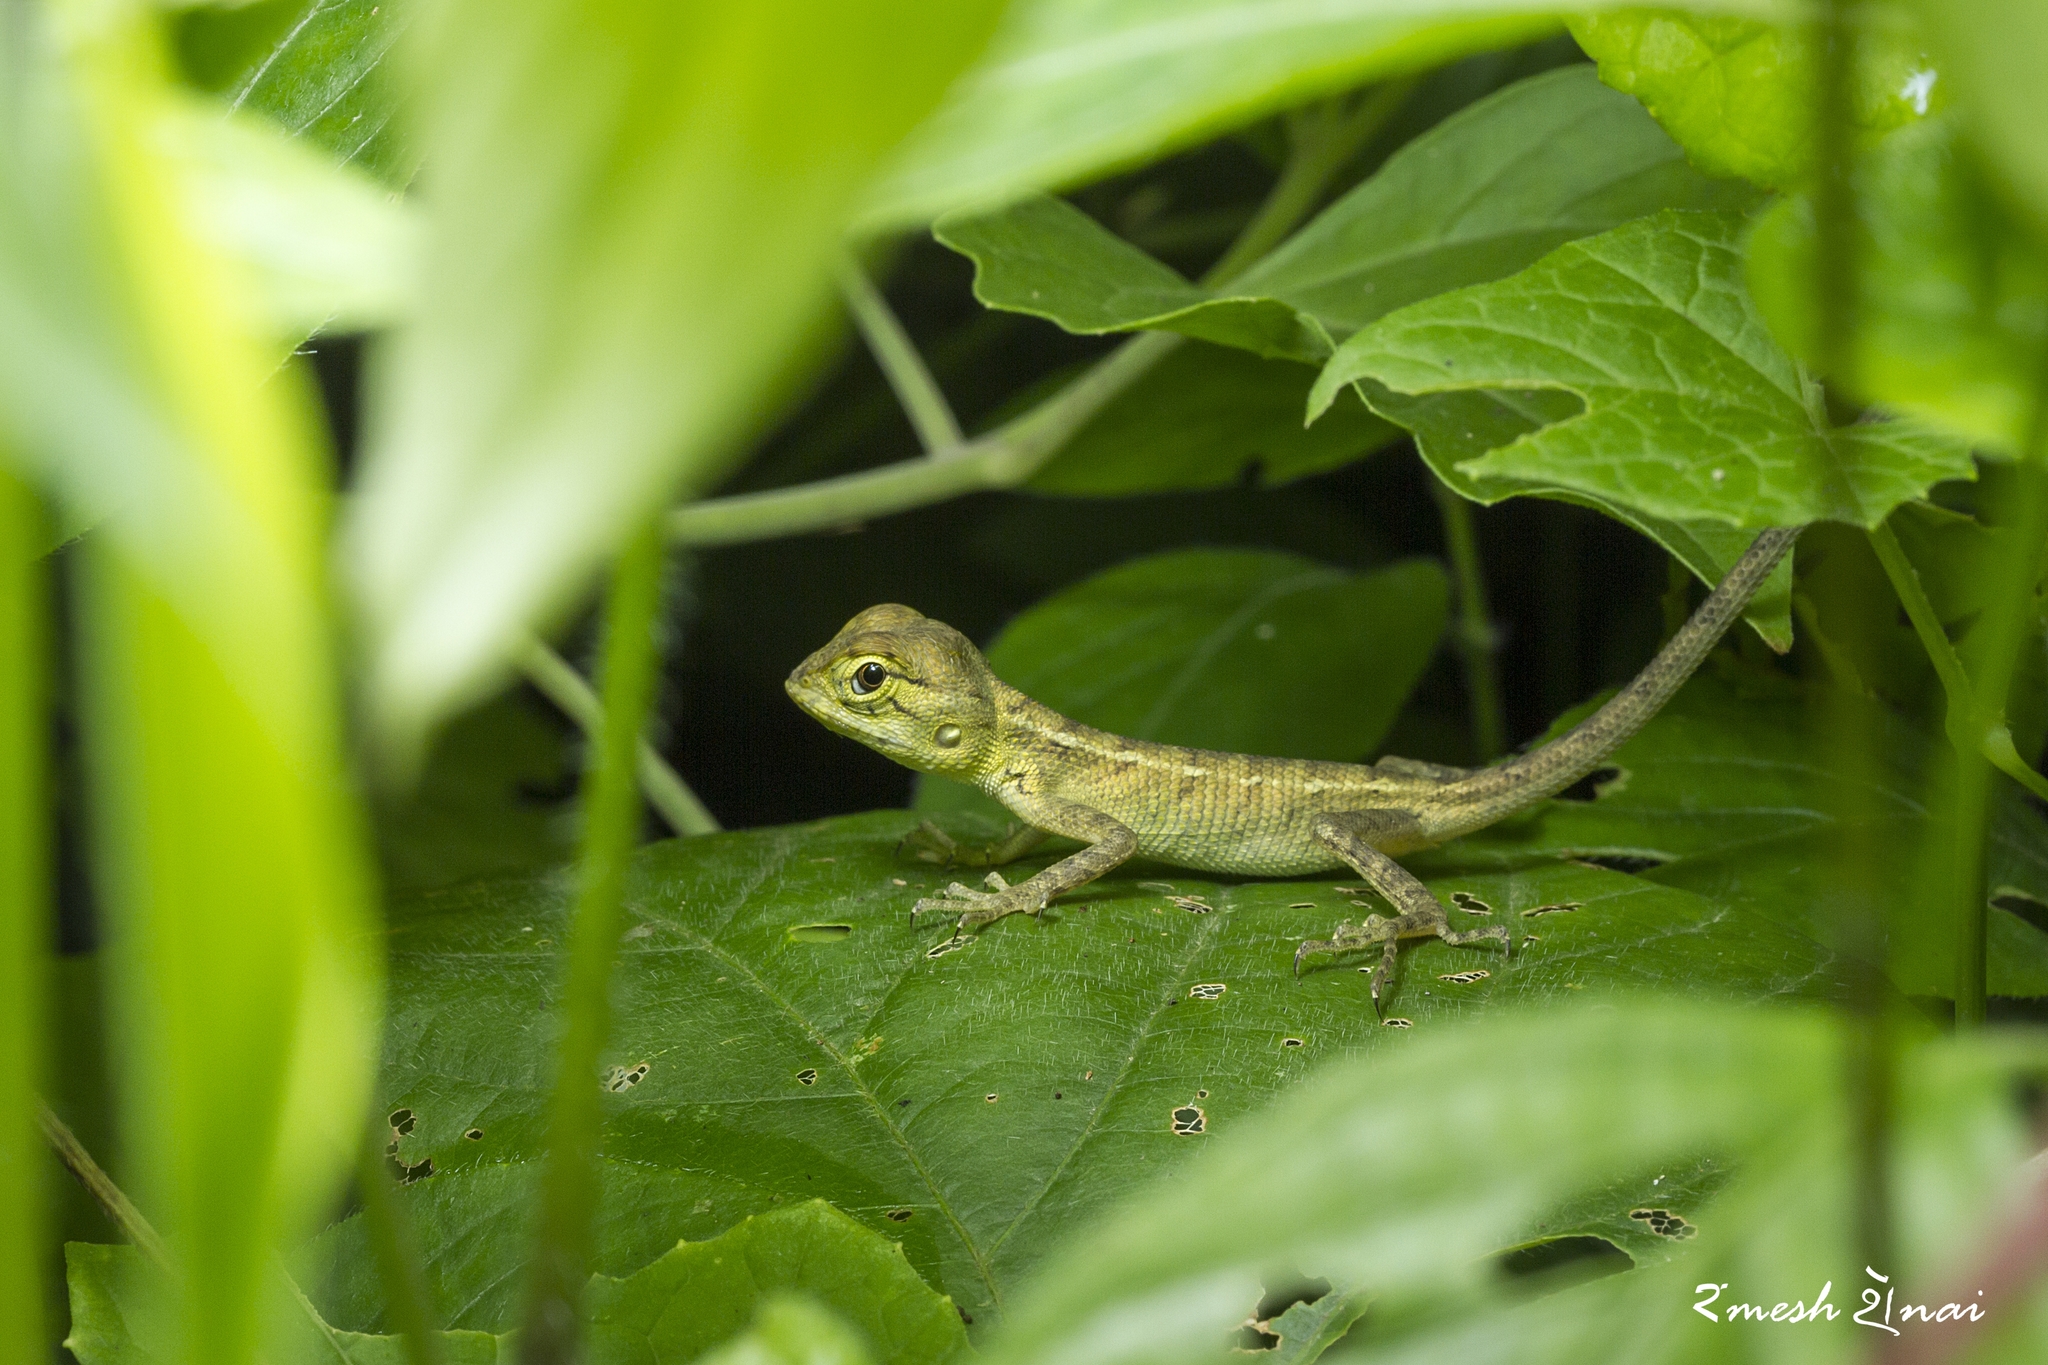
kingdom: Animalia
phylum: Chordata
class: Squamata
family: Agamidae
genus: Calotes
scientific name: Calotes versicolor
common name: Oriental garden lizard
